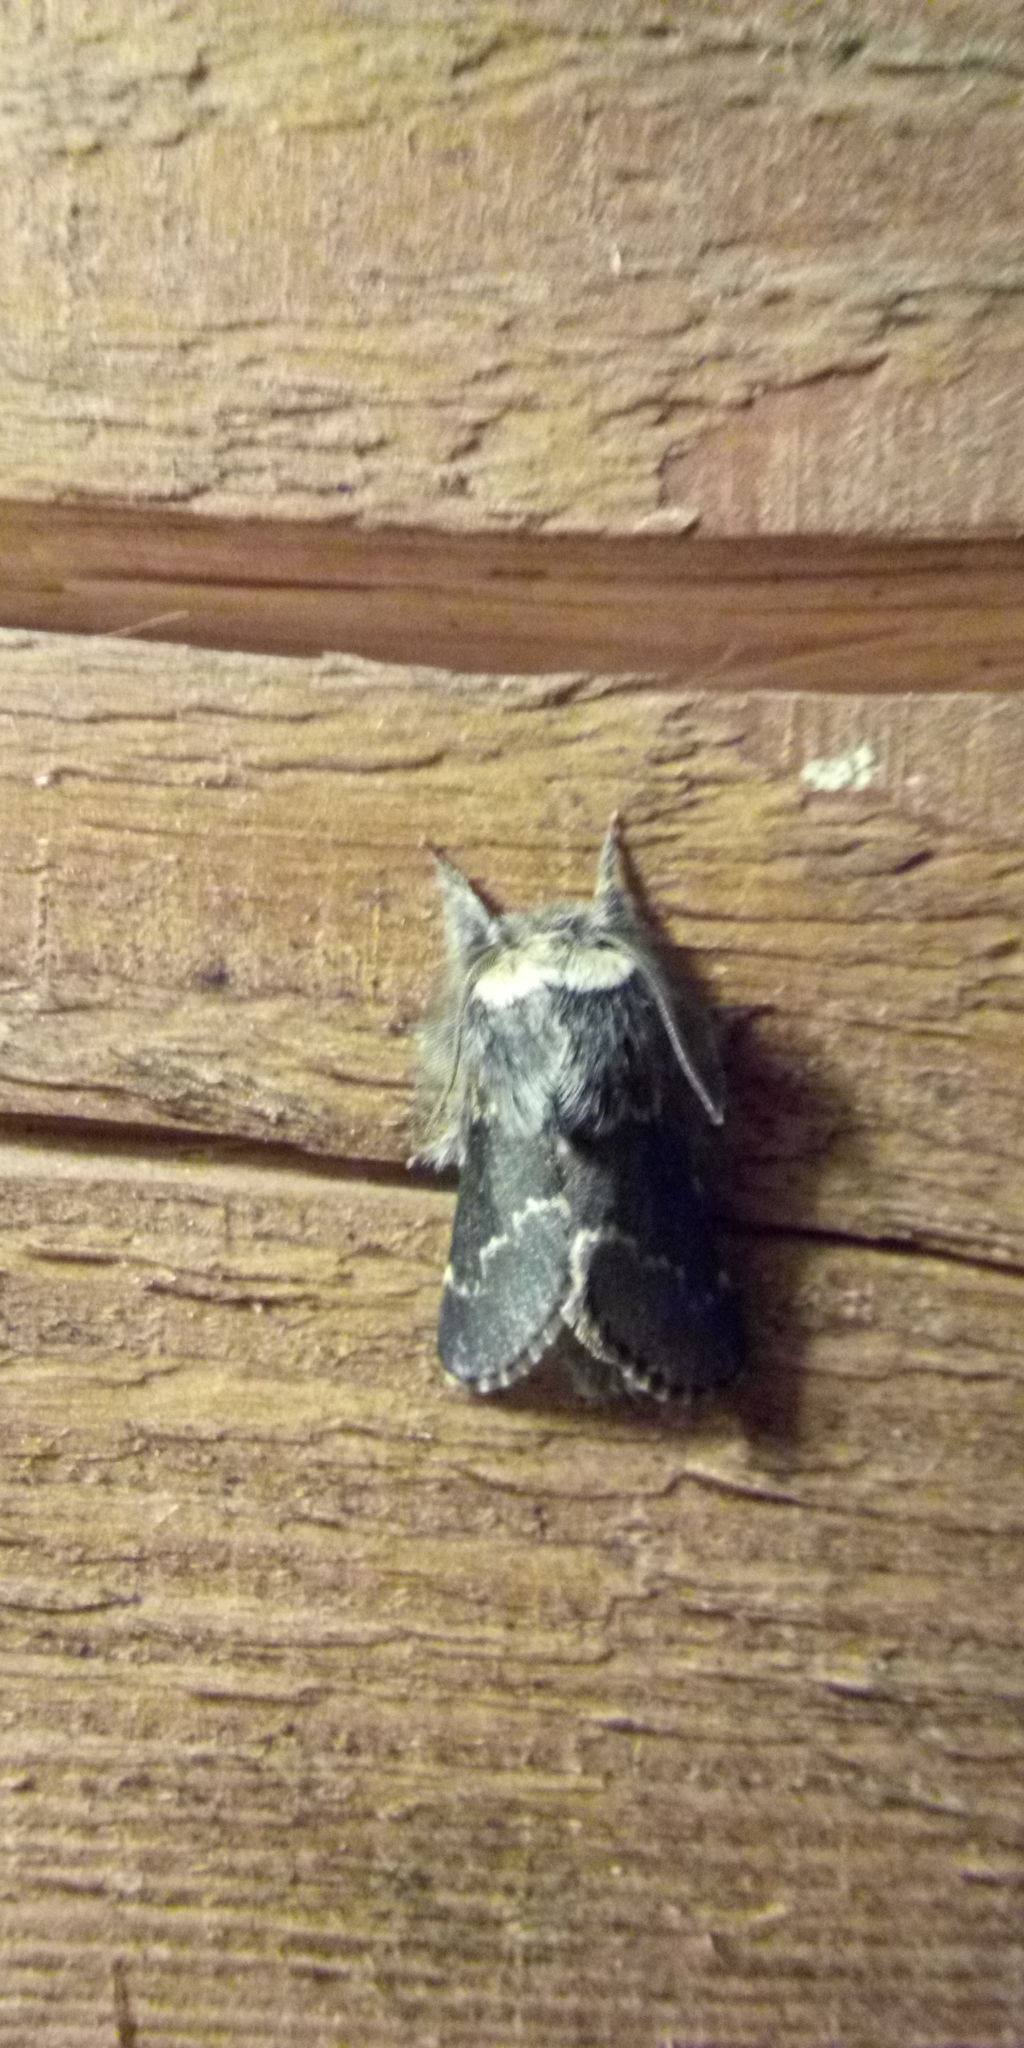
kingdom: Animalia
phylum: Arthropoda
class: Insecta
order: Lepidoptera
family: Lasiocampidae
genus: Poecilocampa
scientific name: Poecilocampa populi
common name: December moth
